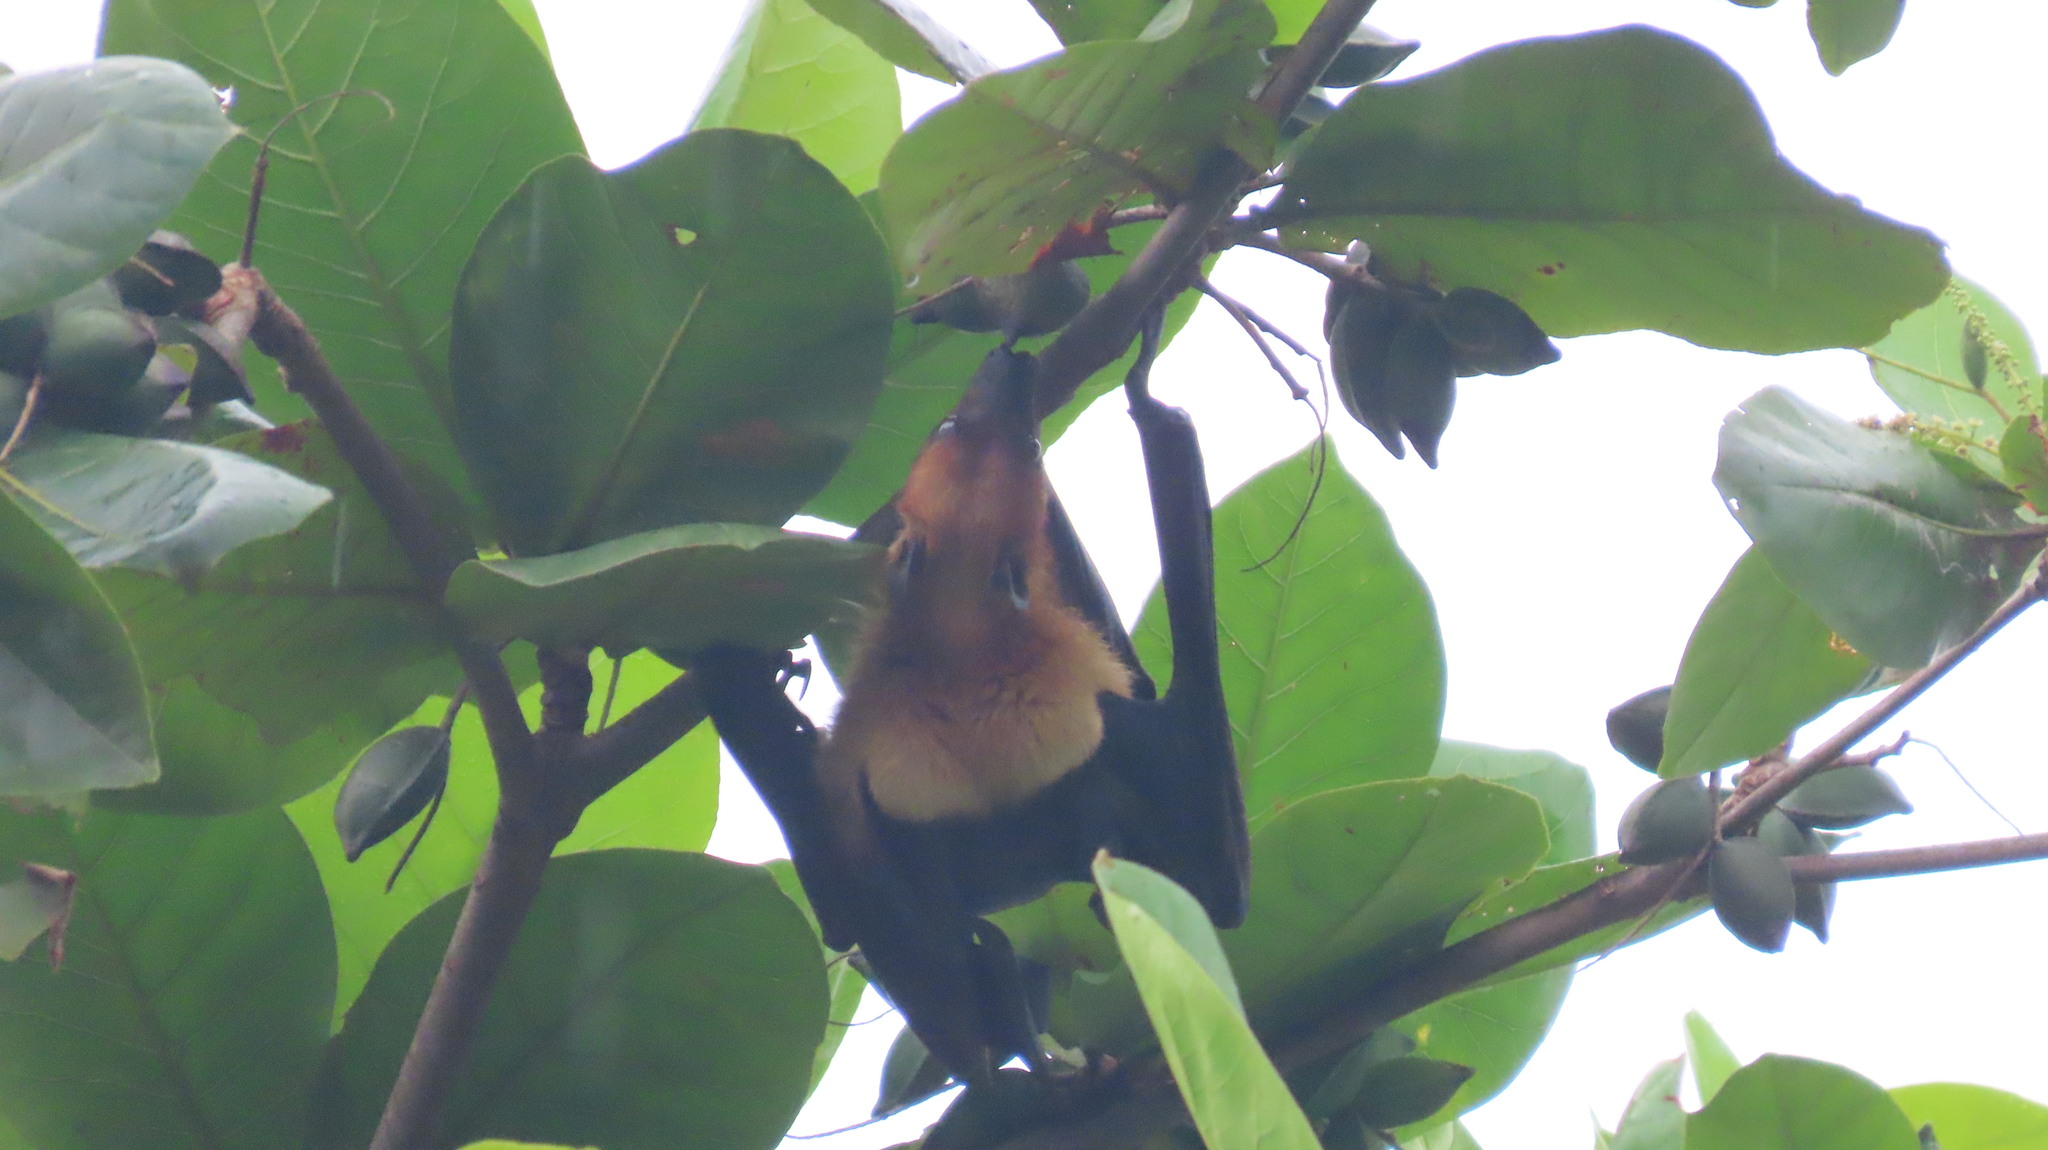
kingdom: Animalia
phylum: Chordata
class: Mammalia
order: Chiroptera
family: Pteropodidae
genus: Pteropus
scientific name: Pteropus vampyrus
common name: Large flying fox
